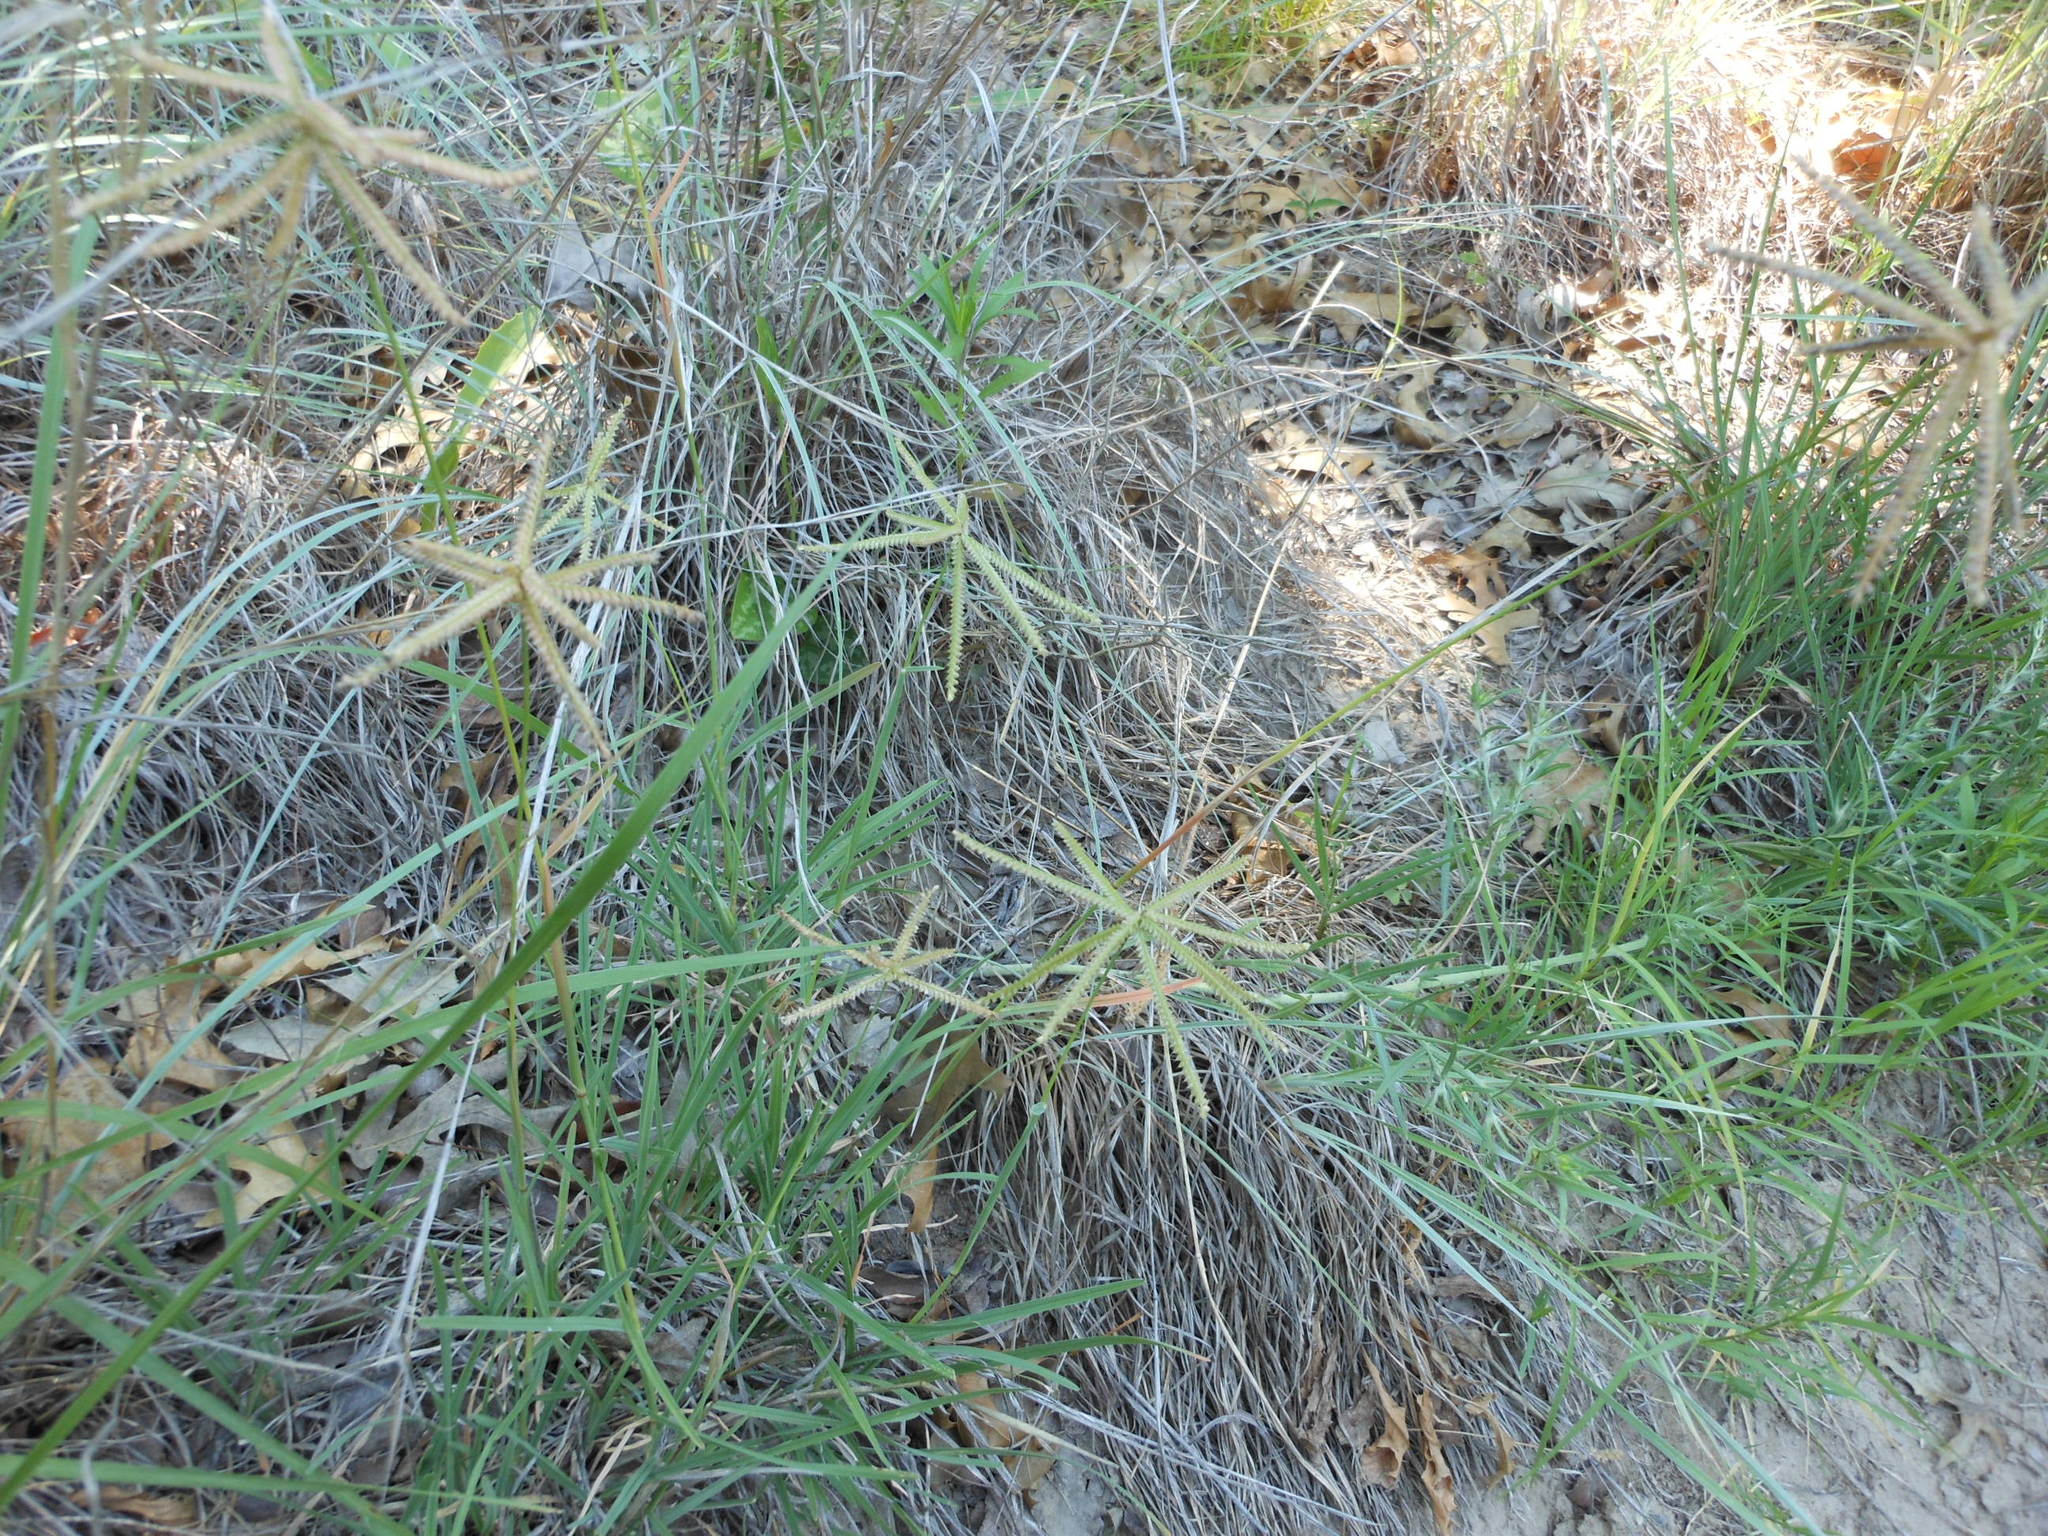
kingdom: Plantae
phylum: Tracheophyta
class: Liliopsida
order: Poales
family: Poaceae
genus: Chloris
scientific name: Chloris cucullata
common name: Hooded windmill grass
